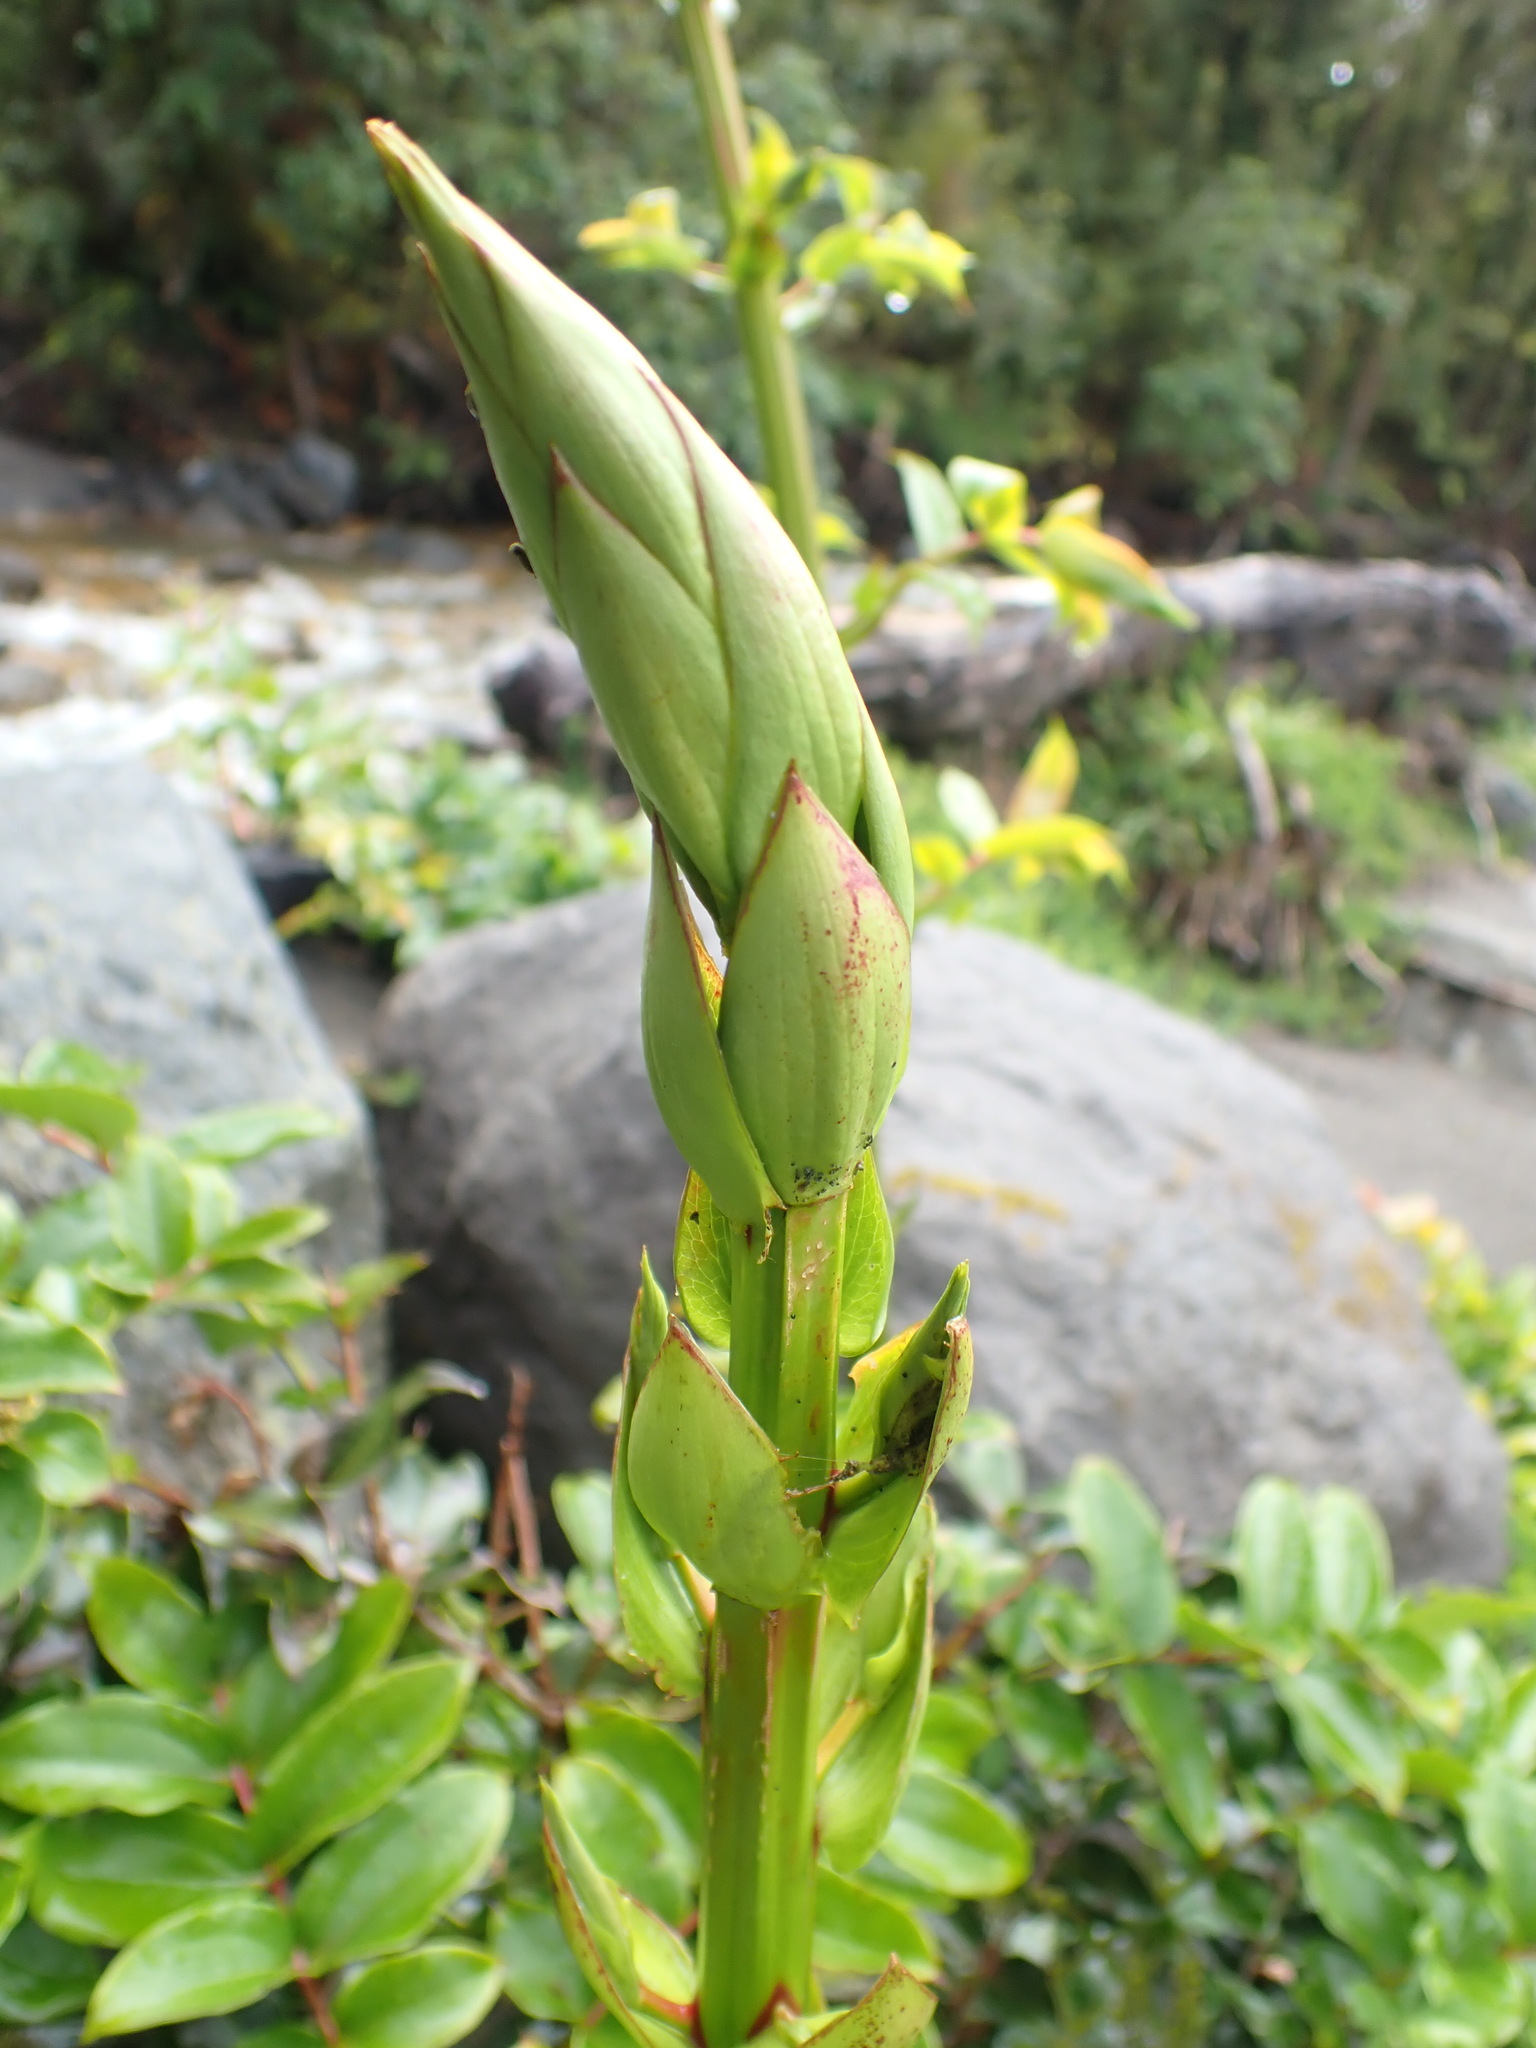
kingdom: Plantae
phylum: Tracheophyta
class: Magnoliopsida
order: Cucurbitales
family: Coriariaceae
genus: Coriaria
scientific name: Coriaria arborea
